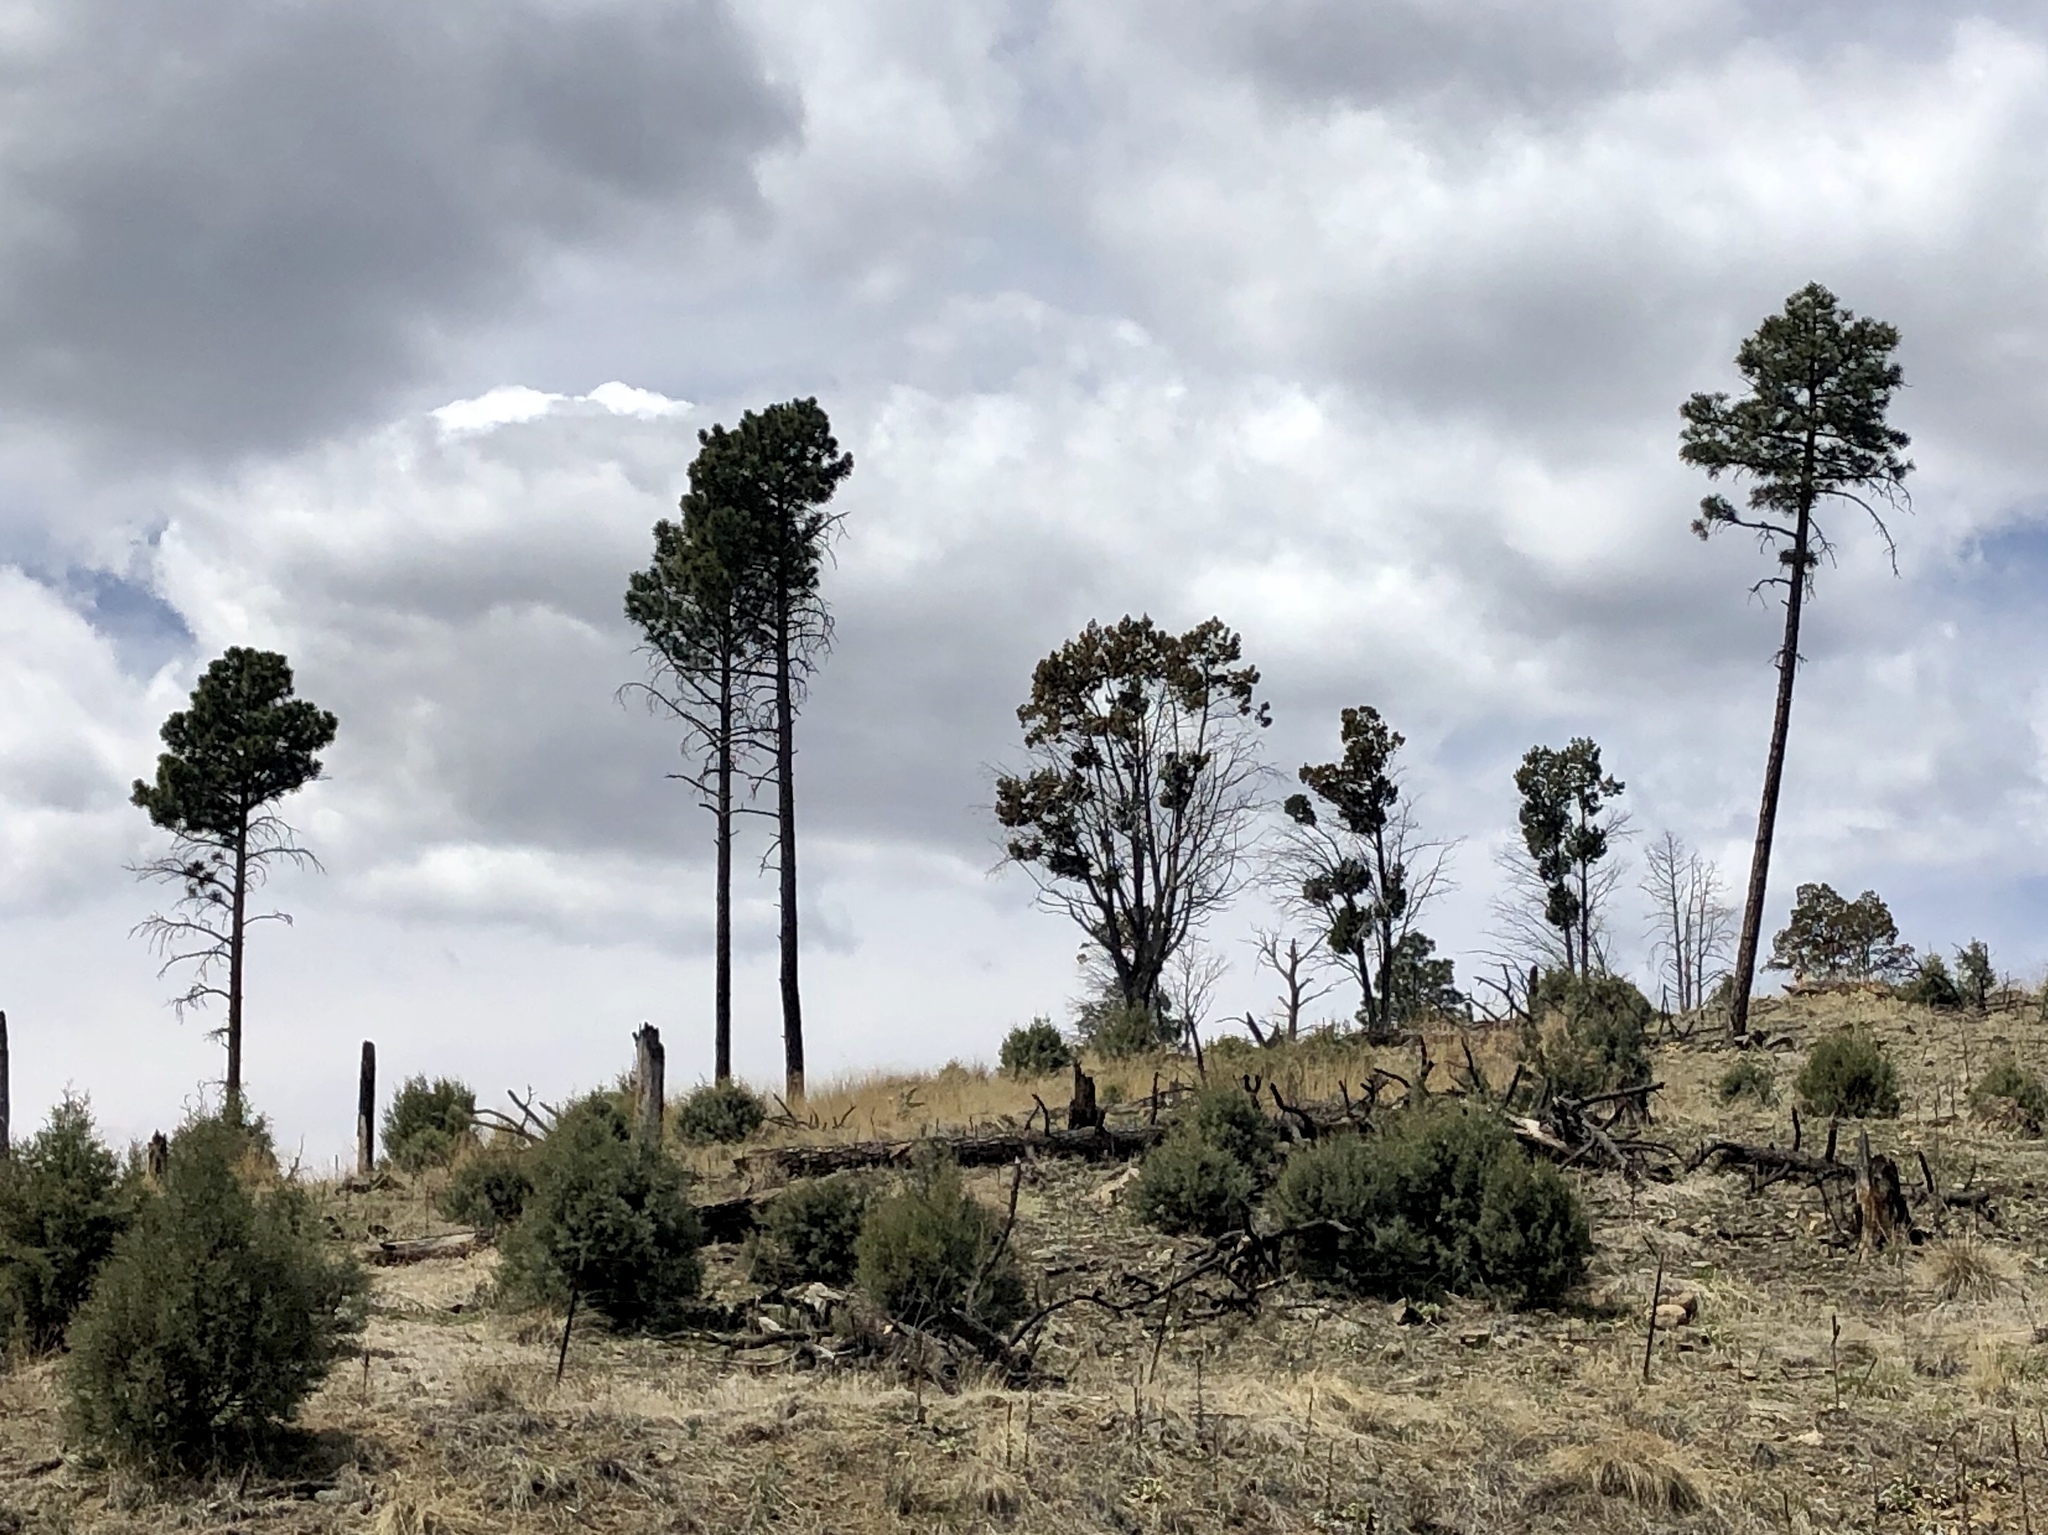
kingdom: Plantae
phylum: Tracheophyta
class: Pinopsida
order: Pinales
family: Pinaceae
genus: Pinus
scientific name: Pinus ponderosa
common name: Western yellow-pine
